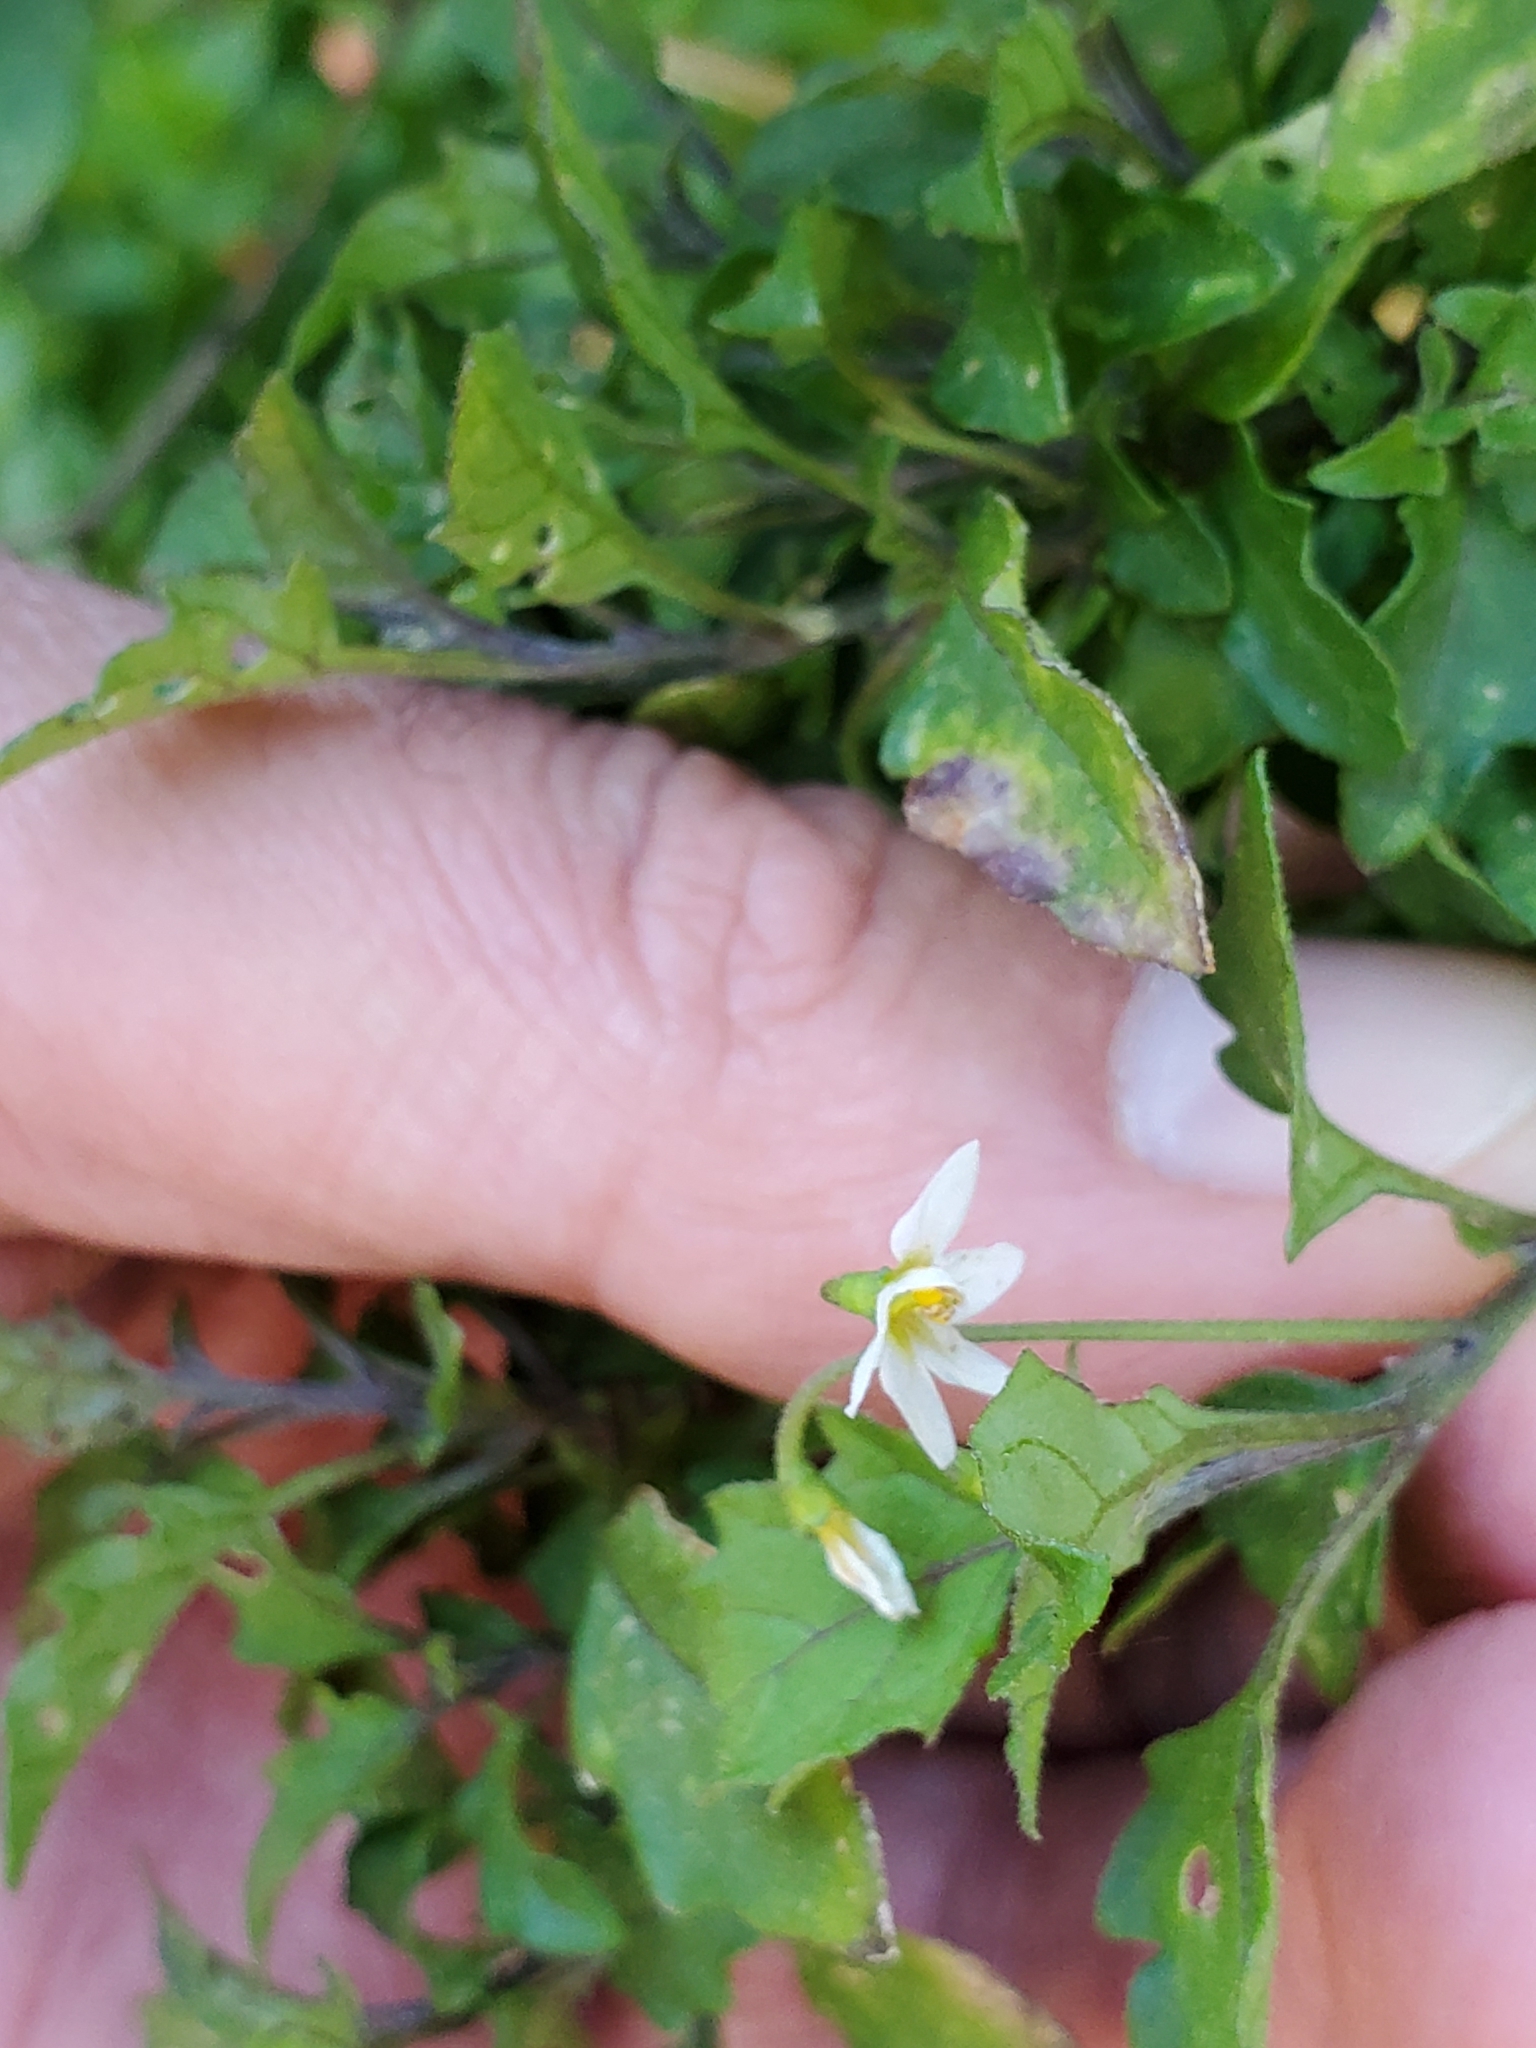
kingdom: Plantae
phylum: Tracheophyta
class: Magnoliopsida
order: Solanales
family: Solanaceae
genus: Solanum
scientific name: Solanum americanum
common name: American black nightshade
